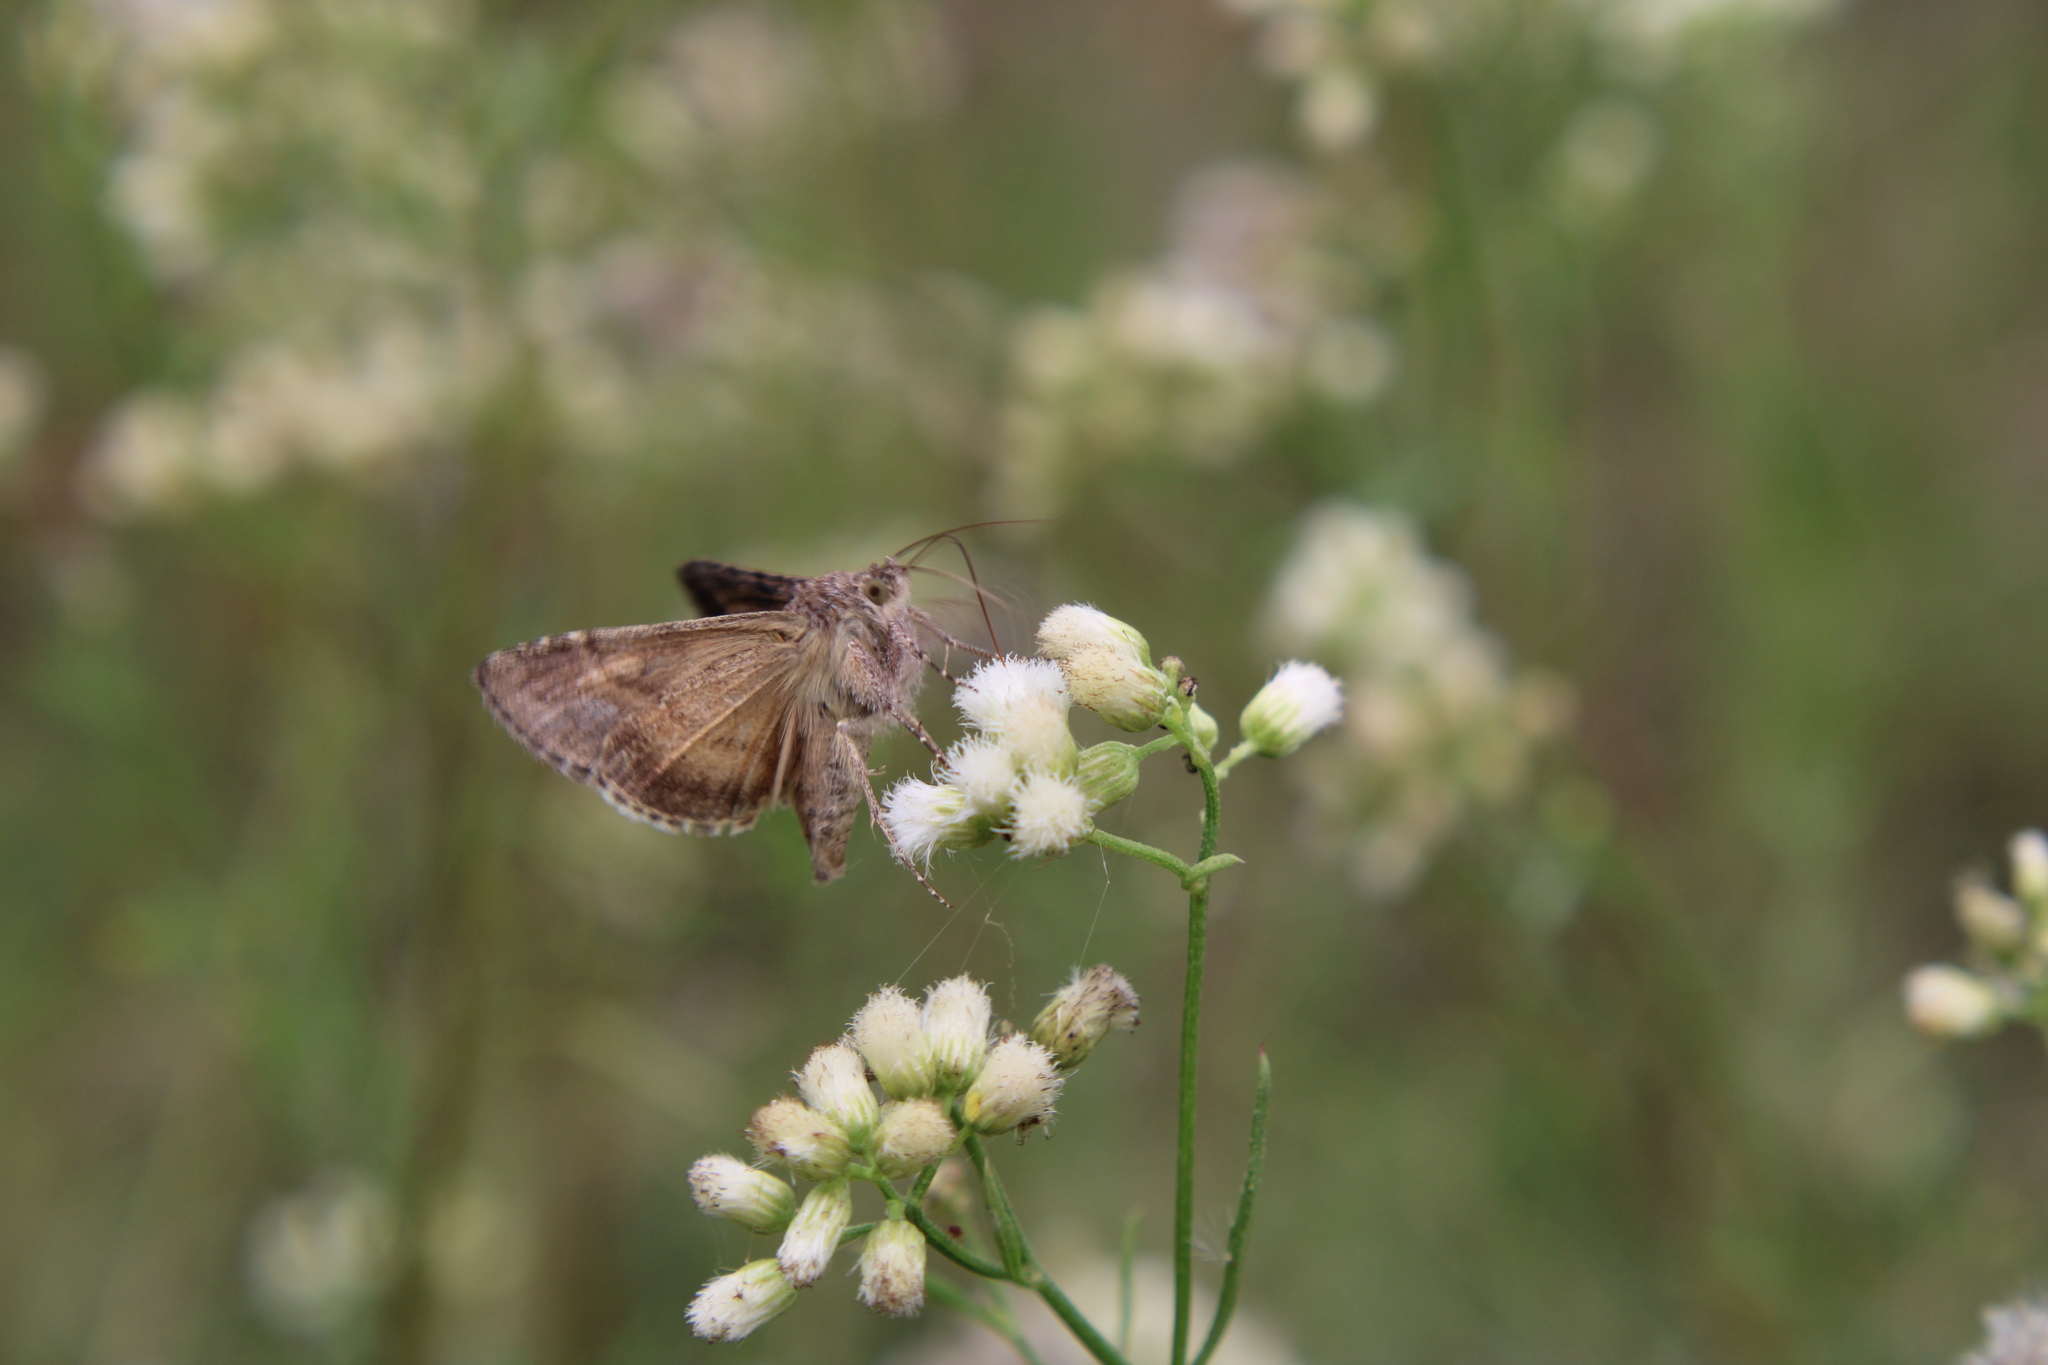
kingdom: Animalia
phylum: Arthropoda
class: Insecta
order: Lepidoptera
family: Noctuidae
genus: Rachiplusia
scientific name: Rachiplusia nu
